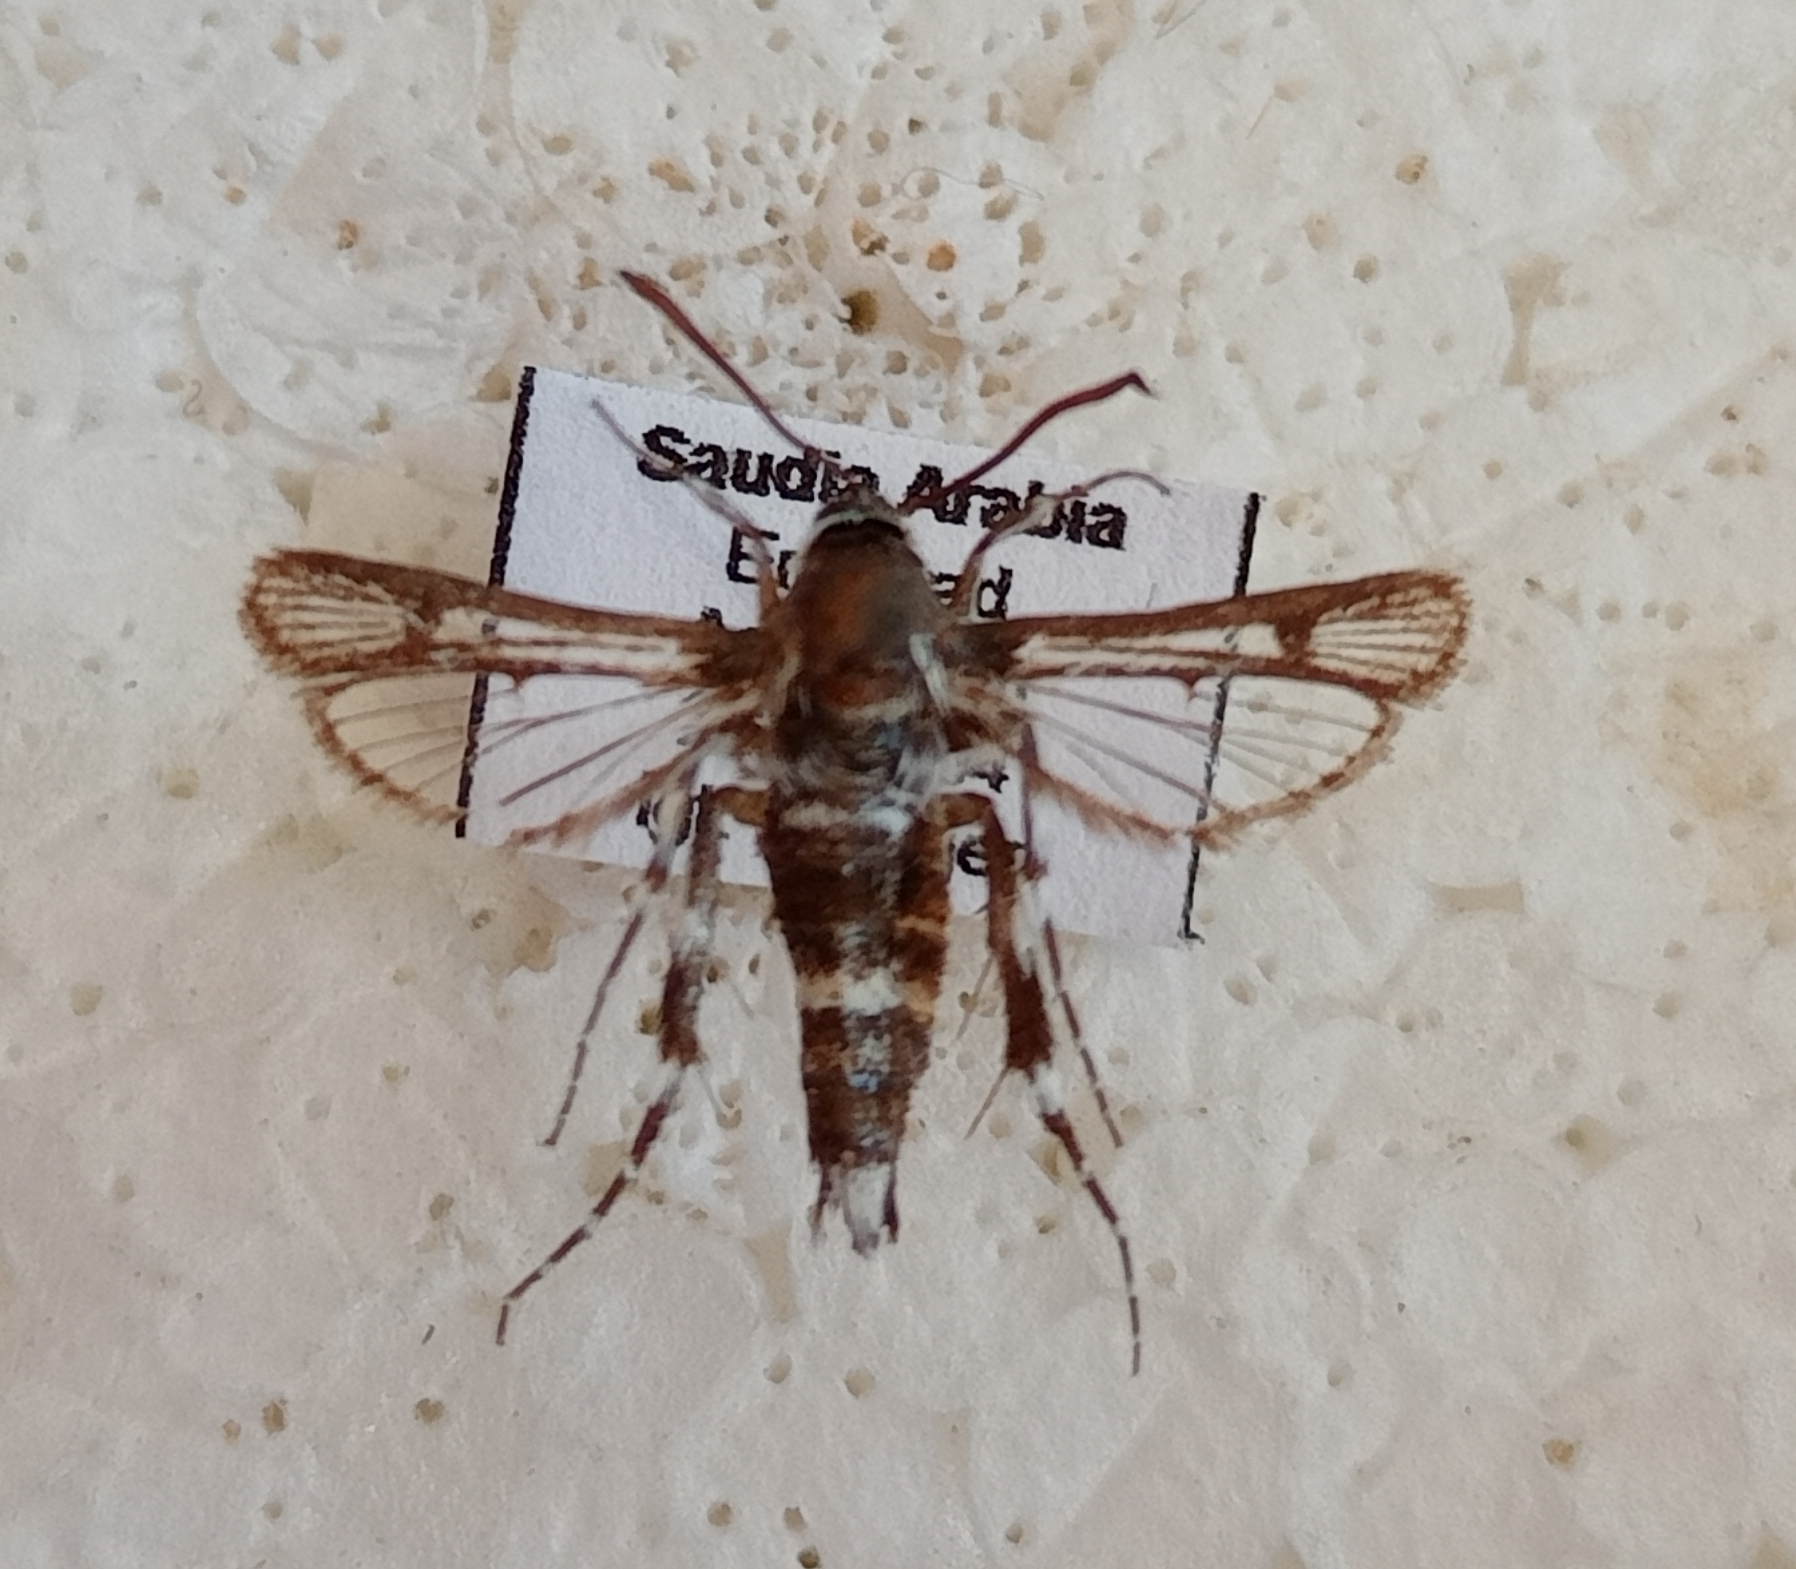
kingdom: Animalia
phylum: Arthropoda
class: Insecta
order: Lepidoptera
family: Sesiidae
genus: Crinipus
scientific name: Crinipus leucozonipus
